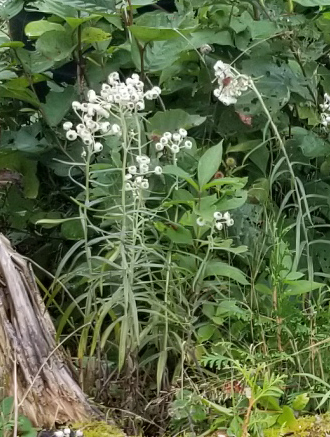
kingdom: Plantae
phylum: Tracheophyta
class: Magnoliopsida
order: Asterales
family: Asteraceae
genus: Anaphalis
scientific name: Anaphalis margaritacea
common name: Pearly everlasting
